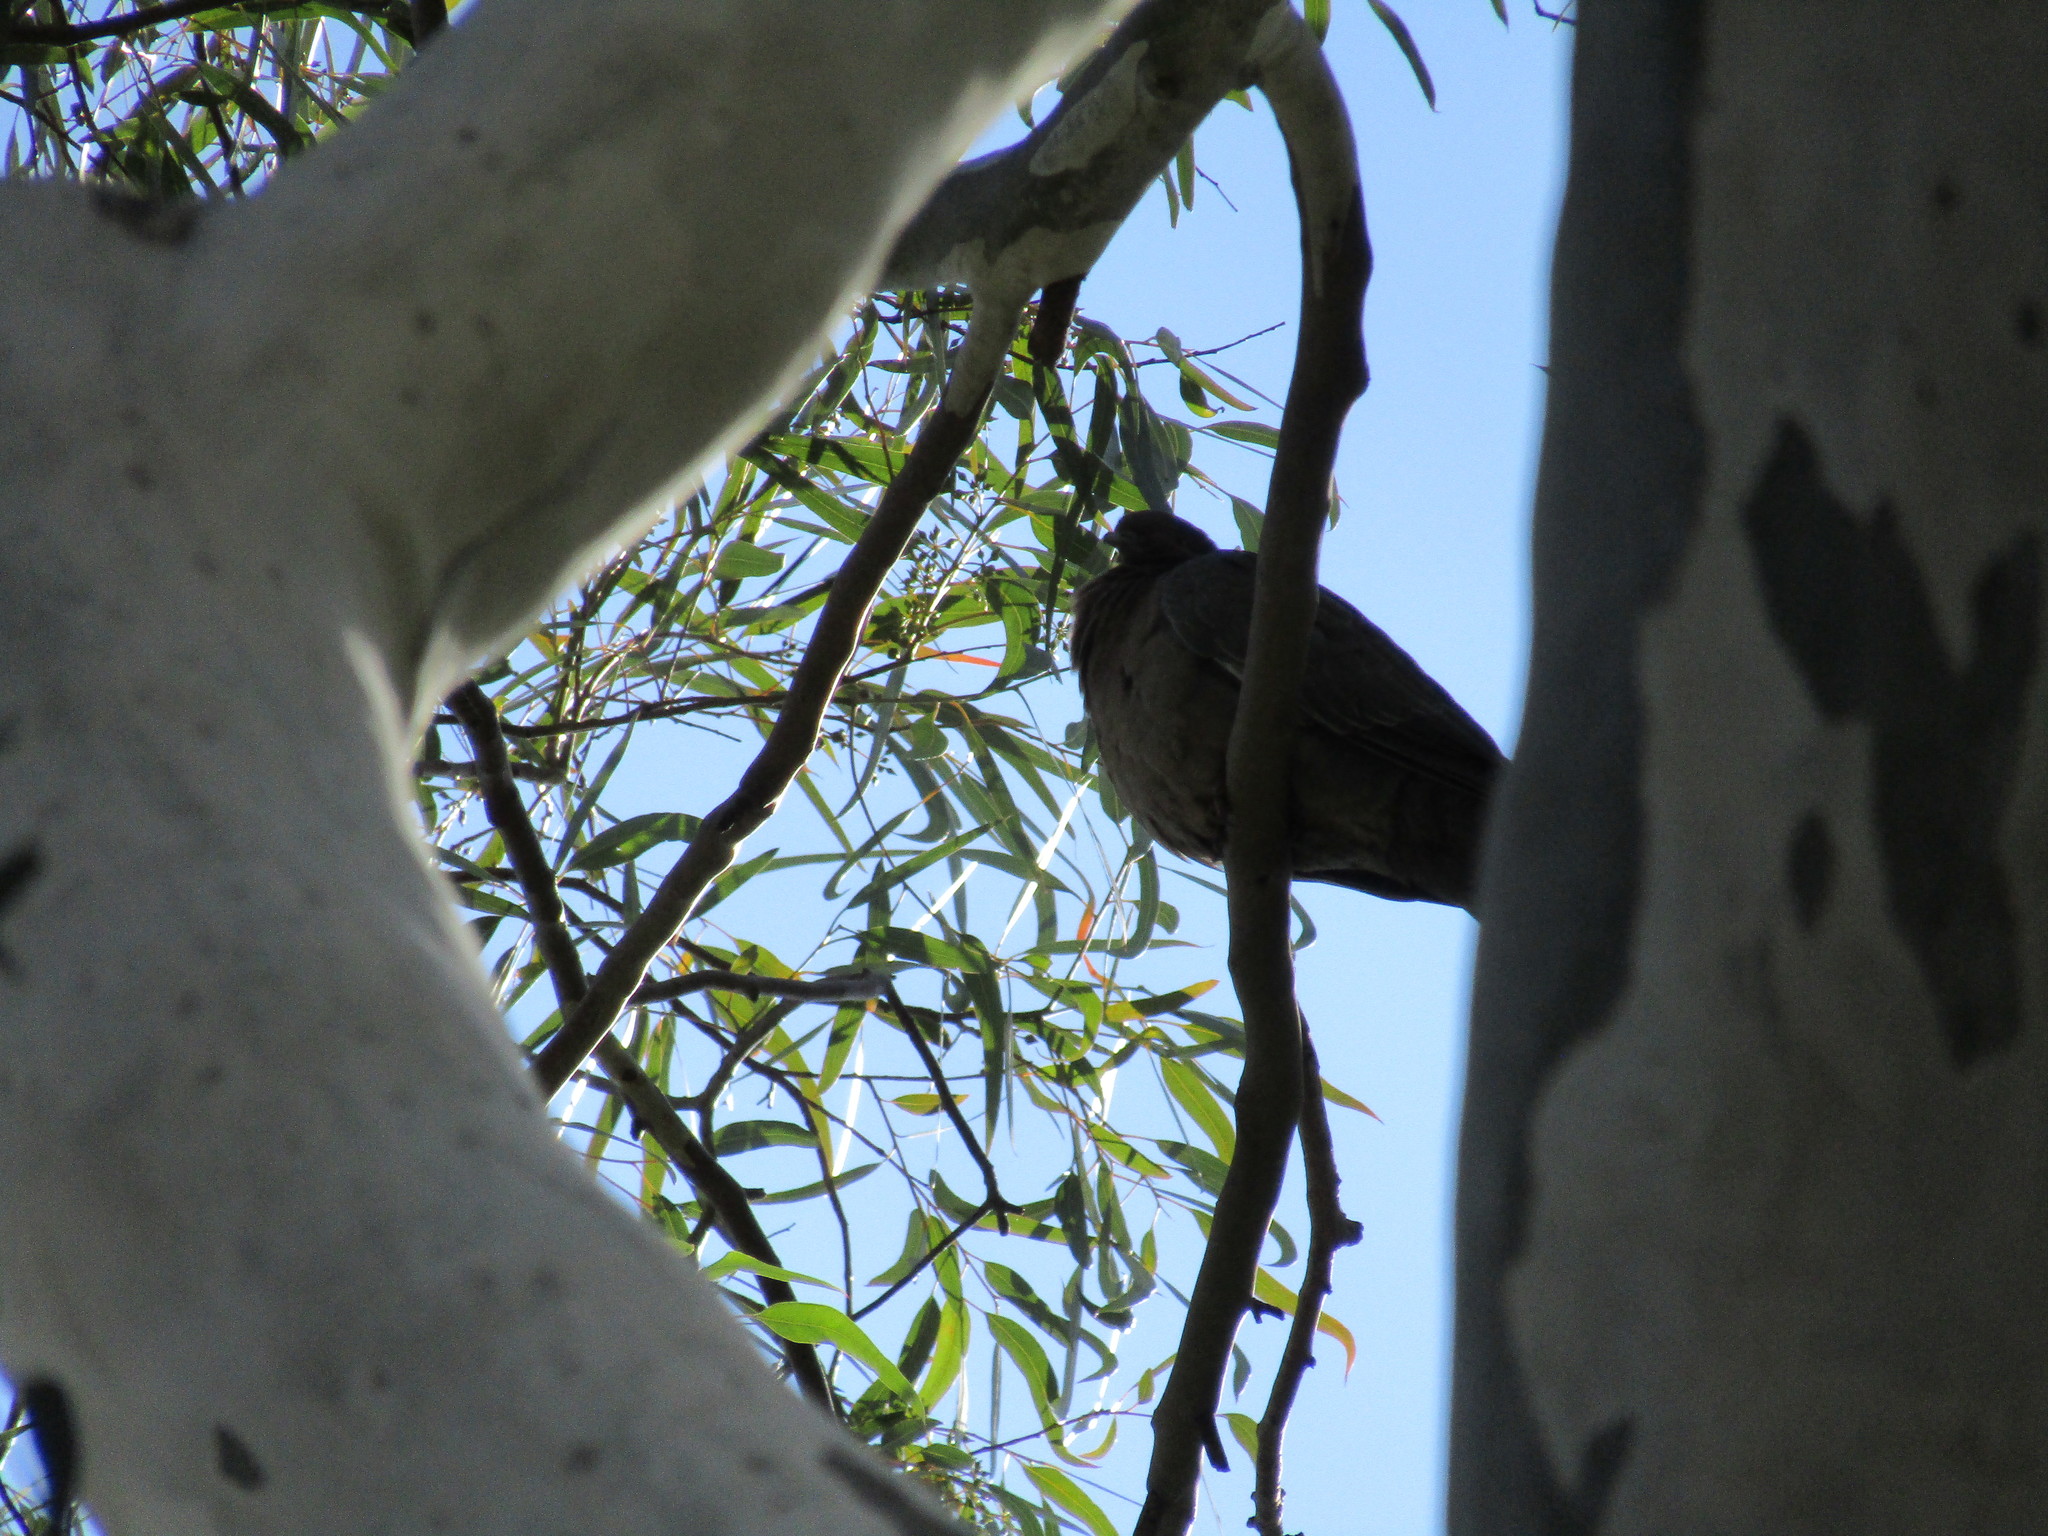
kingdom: Animalia
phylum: Chordata
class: Aves
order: Columbiformes
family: Columbidae
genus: Patagioenas
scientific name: Patagioenas picazuro
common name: Picazuro pigeon
